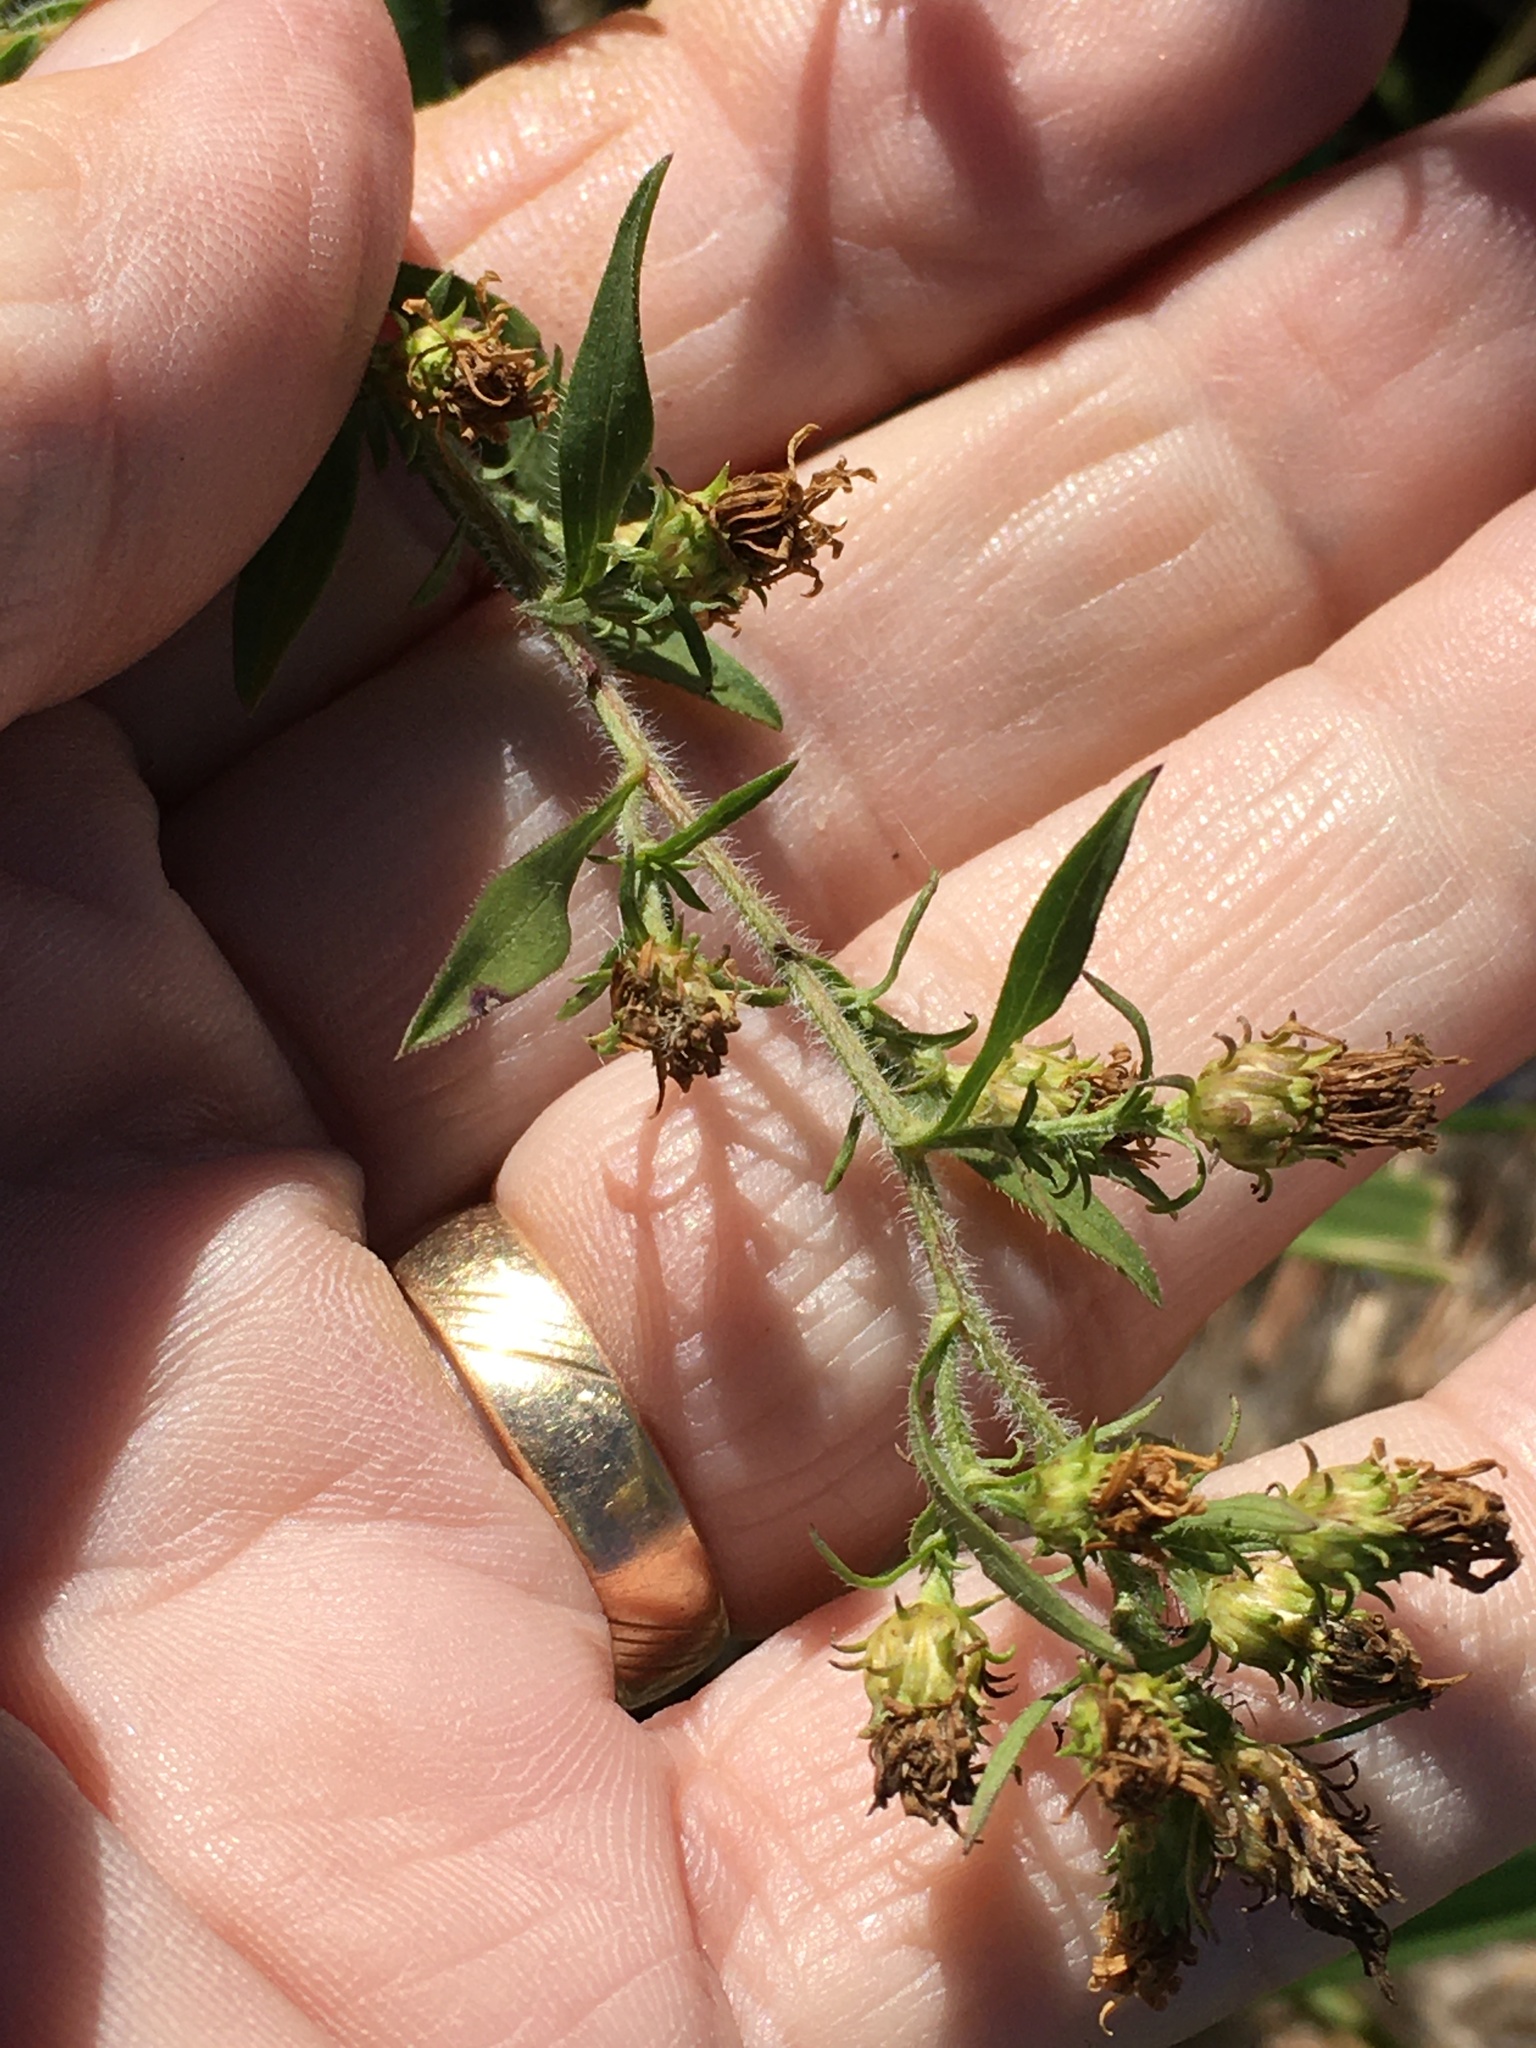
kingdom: Plantae
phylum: Tracheophyta
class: Magnoliopsida
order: Asterales
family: Asteraceae
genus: Symphyotrichum
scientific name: Symphyotrichum pilosum
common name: Awl aster
